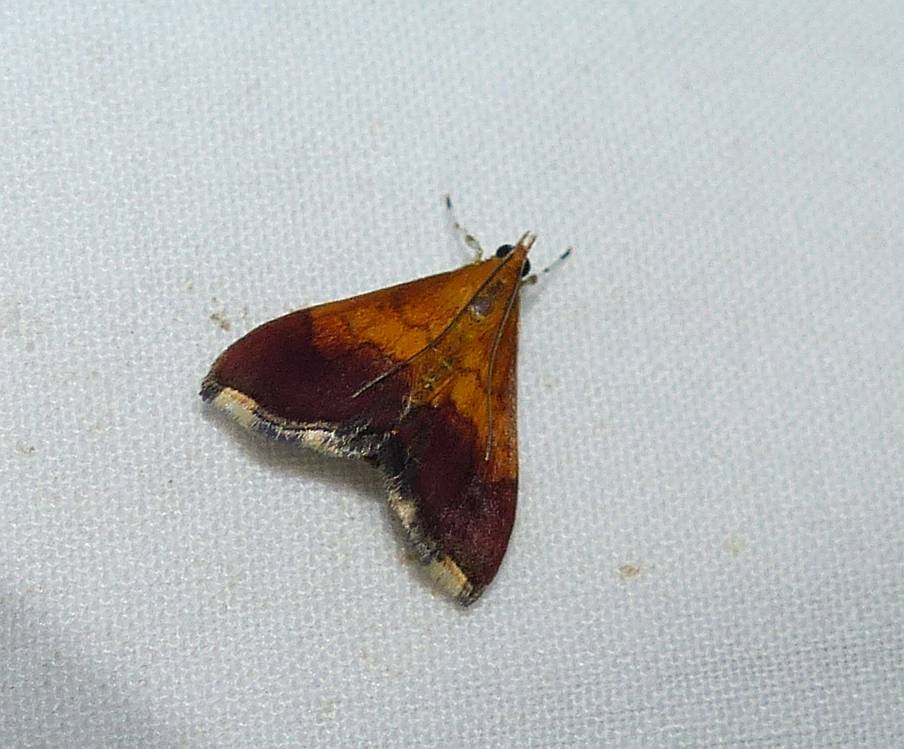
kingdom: Animalia
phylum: Arthropoda
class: Insecta
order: Lepidoptera
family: Crambidae
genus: Pyrausta
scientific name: Pyrausta bicoloralis
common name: Bicolored pyrausta moth
